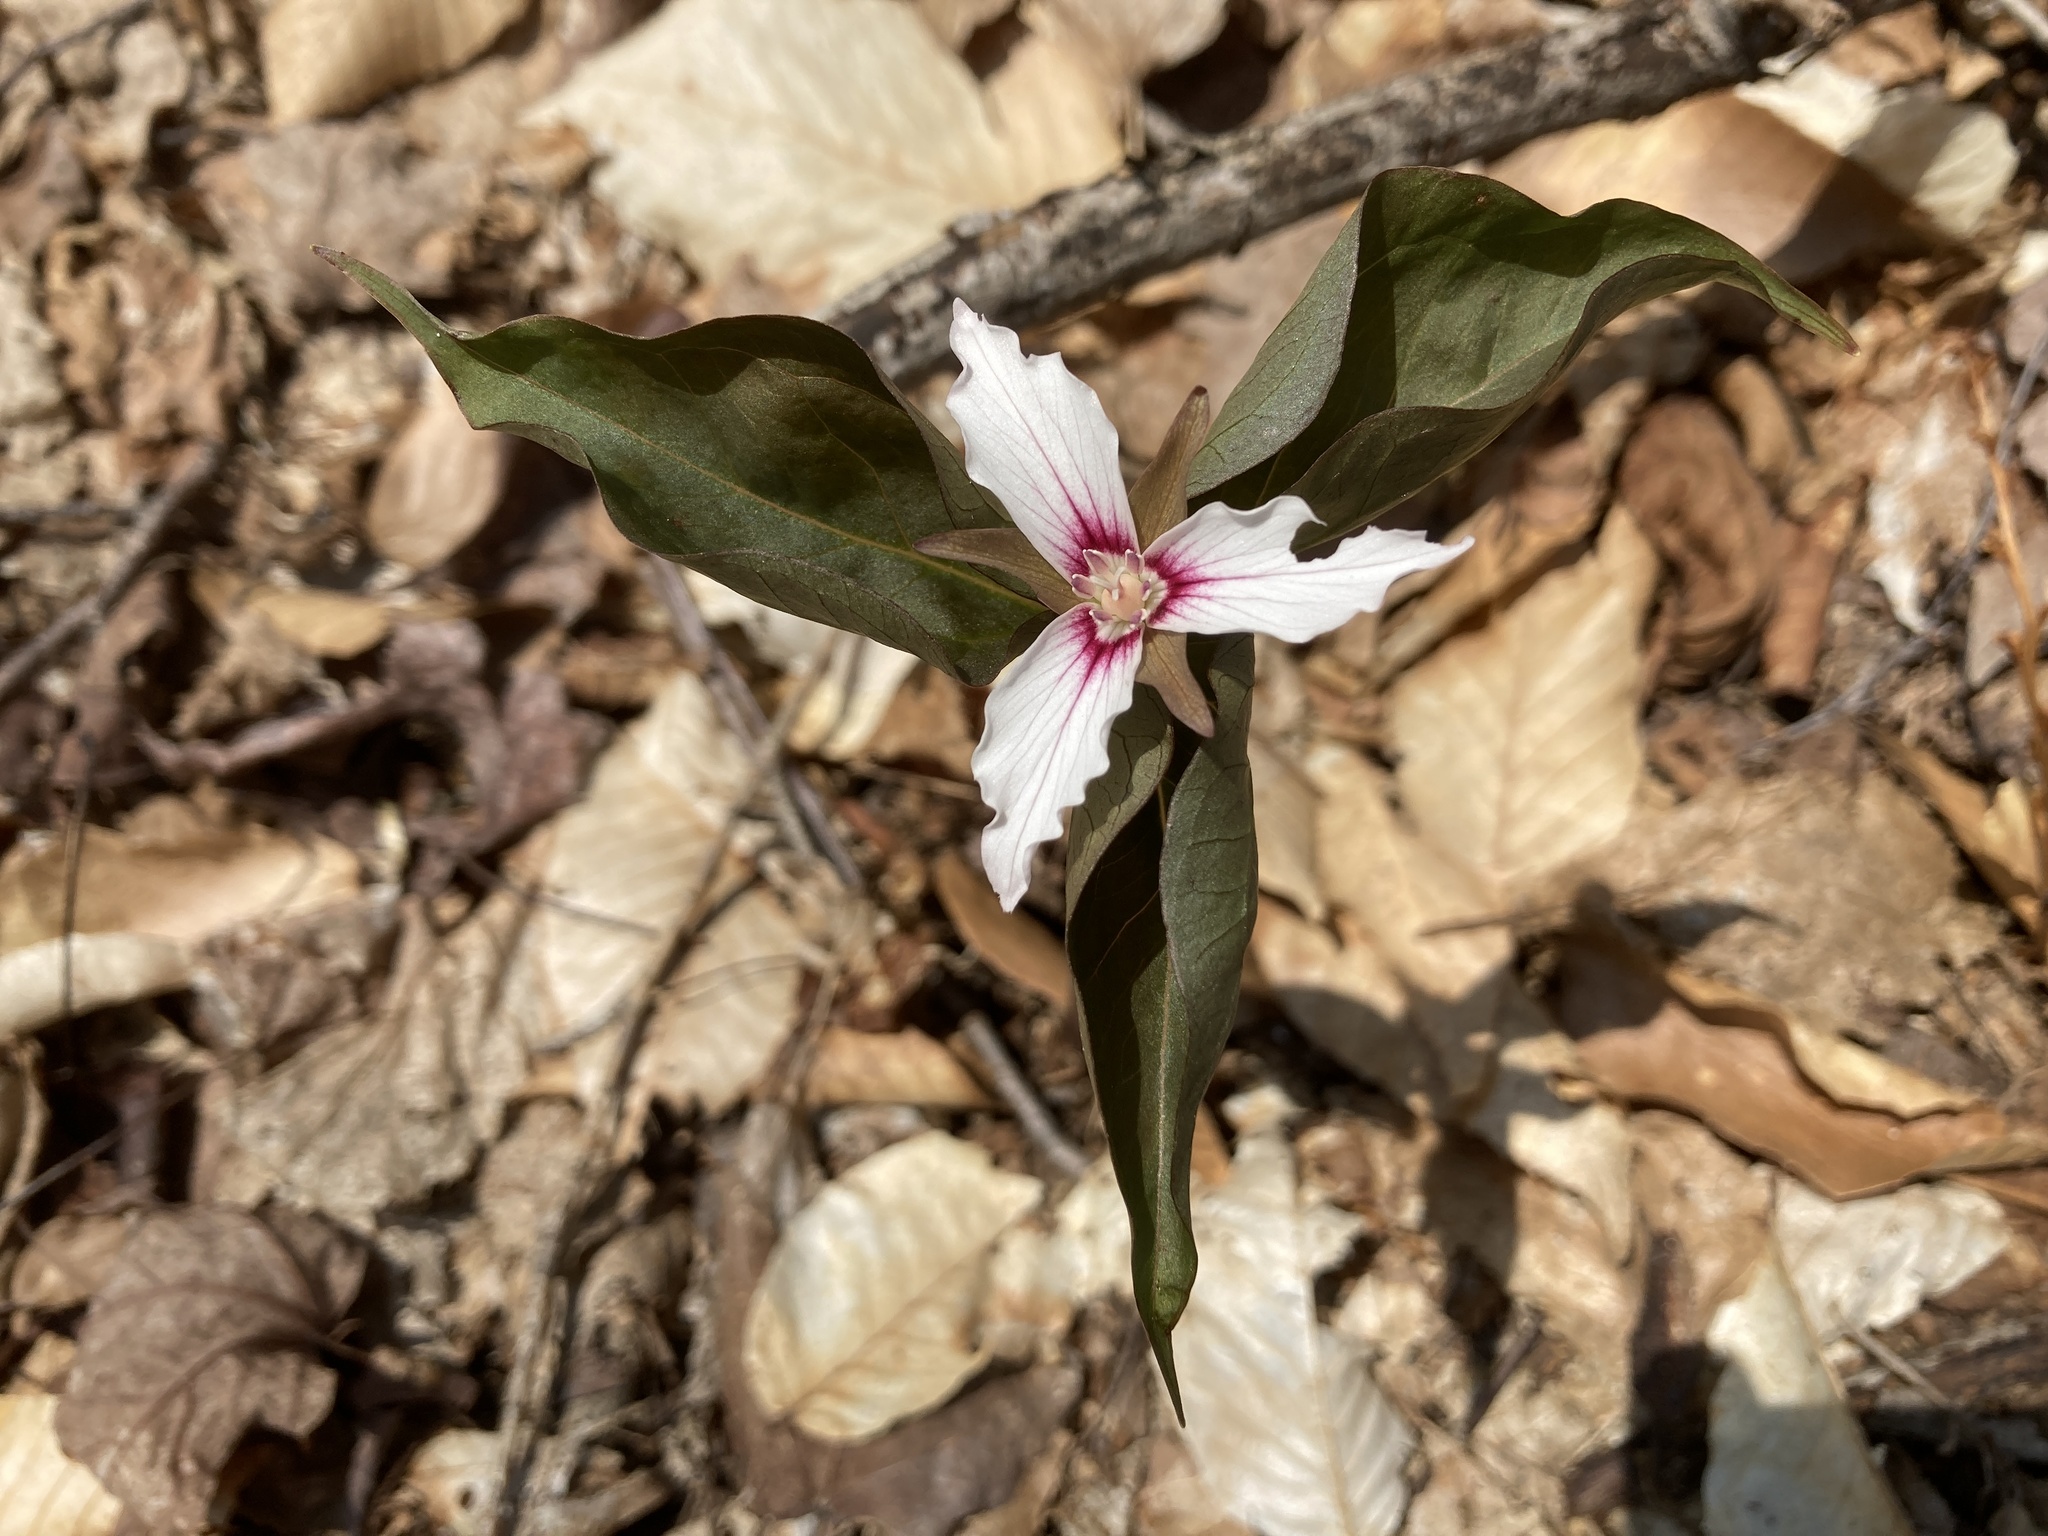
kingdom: Plantae
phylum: Tracheophyta
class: Liliopsida
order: Liliales
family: Melanthiaceae
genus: Trillium
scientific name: Trillium undulatum
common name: Paint trillium
